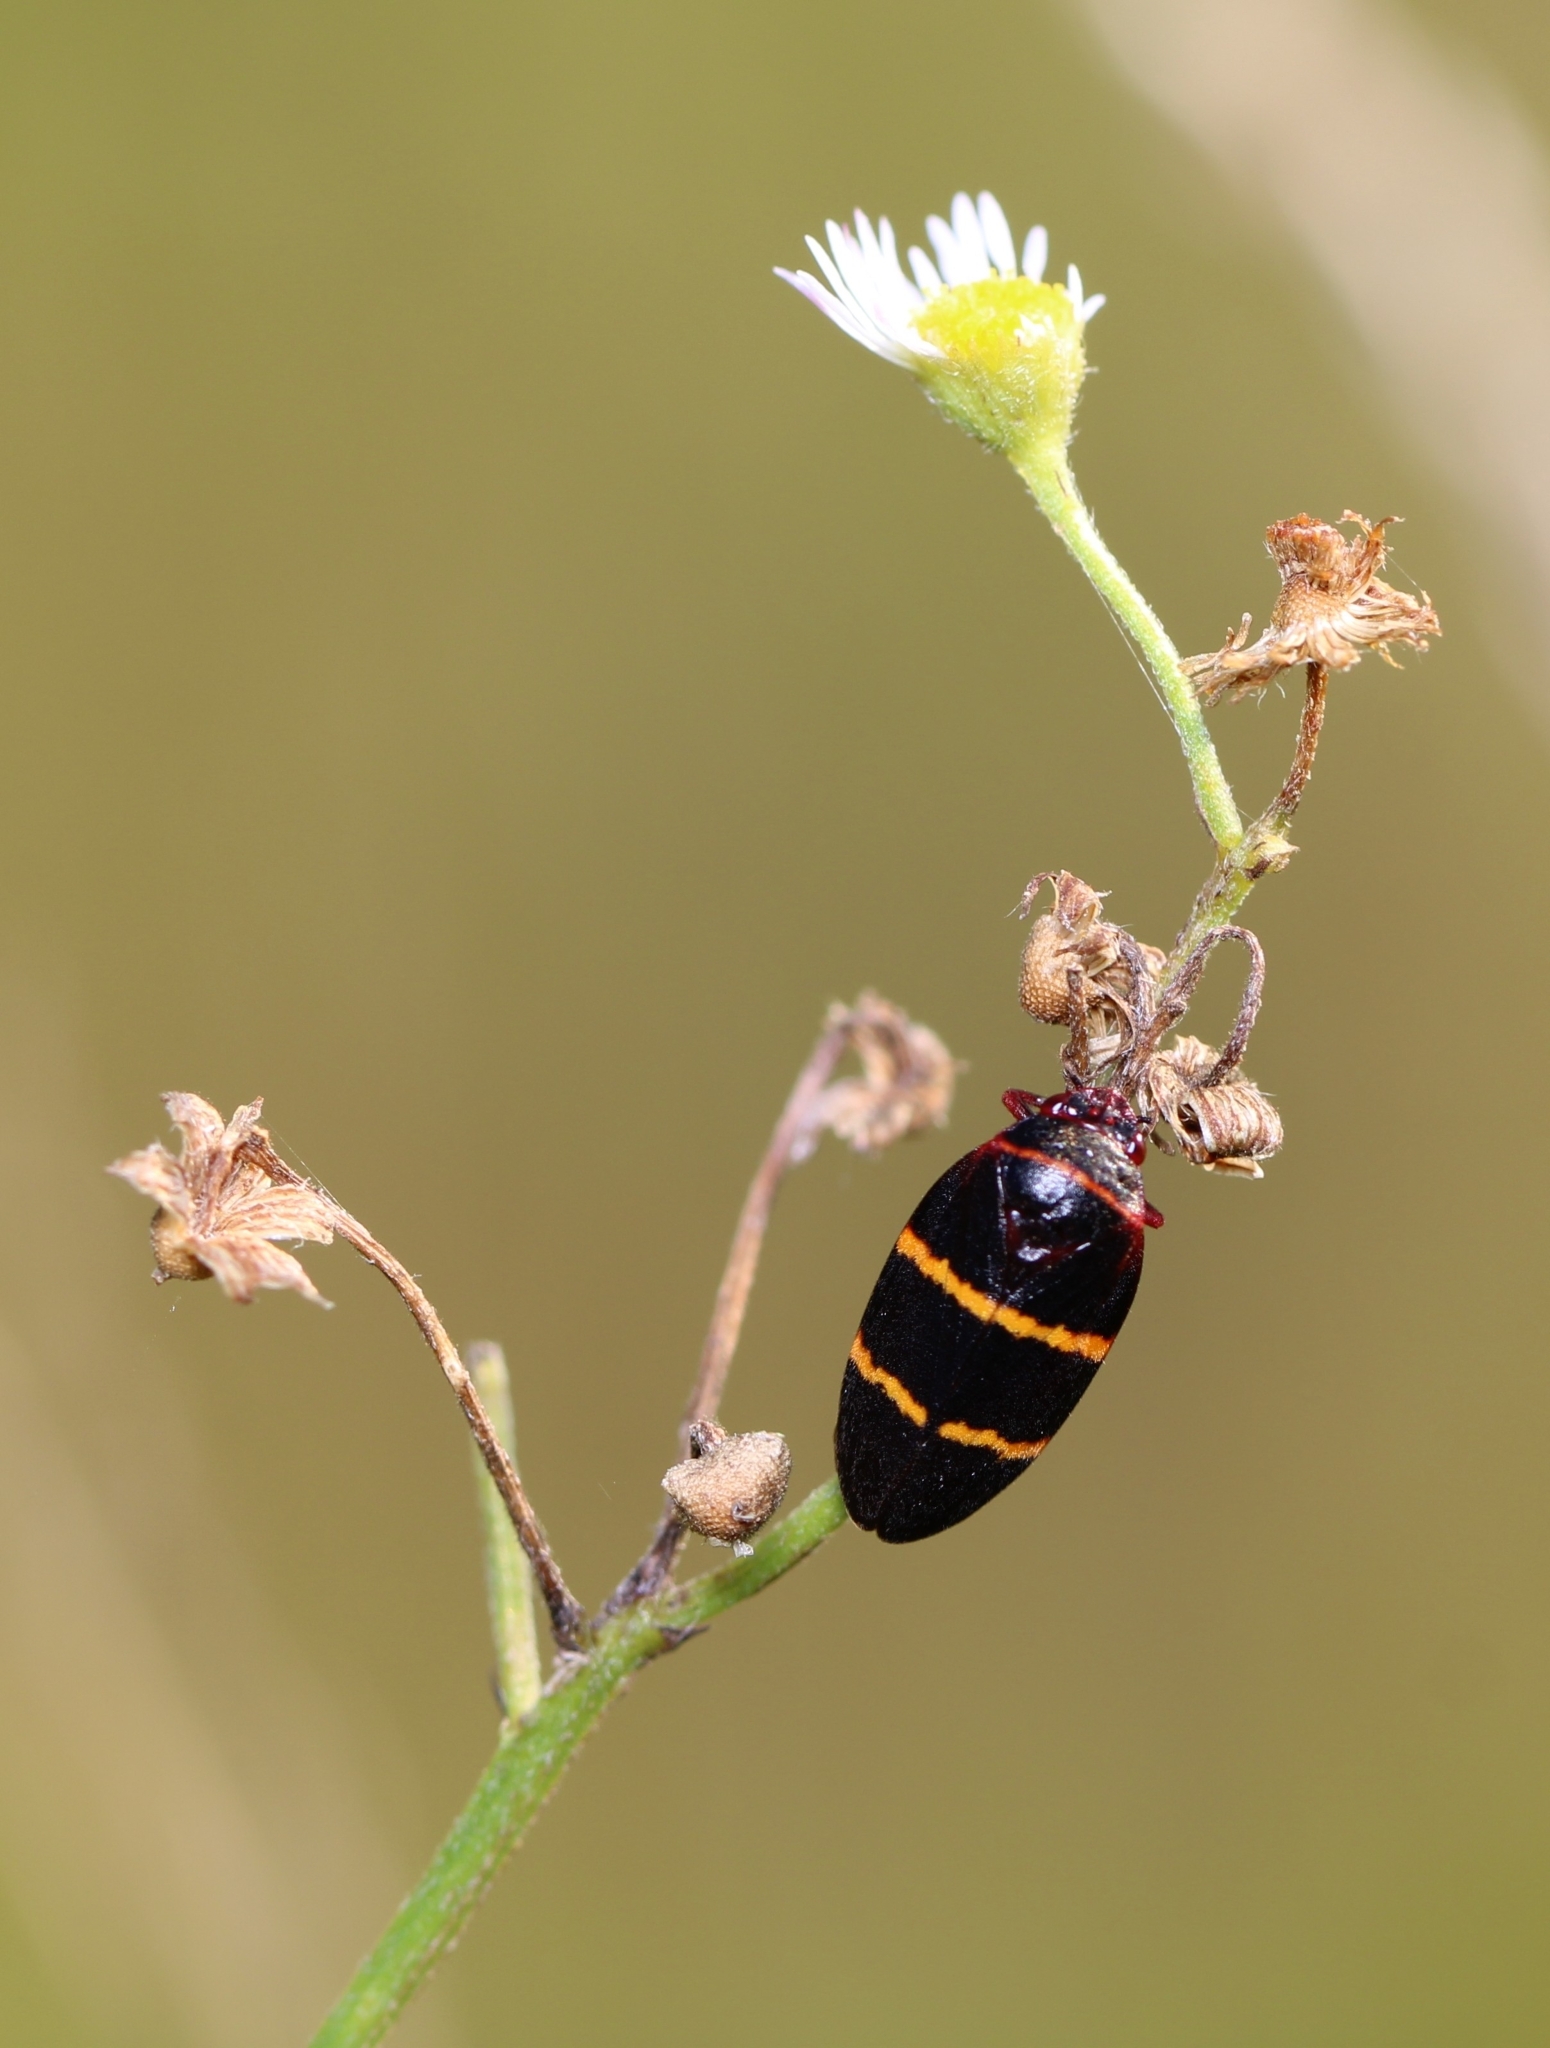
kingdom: Animalia
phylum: Arthropoda
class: Insecta
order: Hemiptera
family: Cercopidae
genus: Prosapia
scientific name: Prosapia bicincta
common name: Twolined spittlebug
